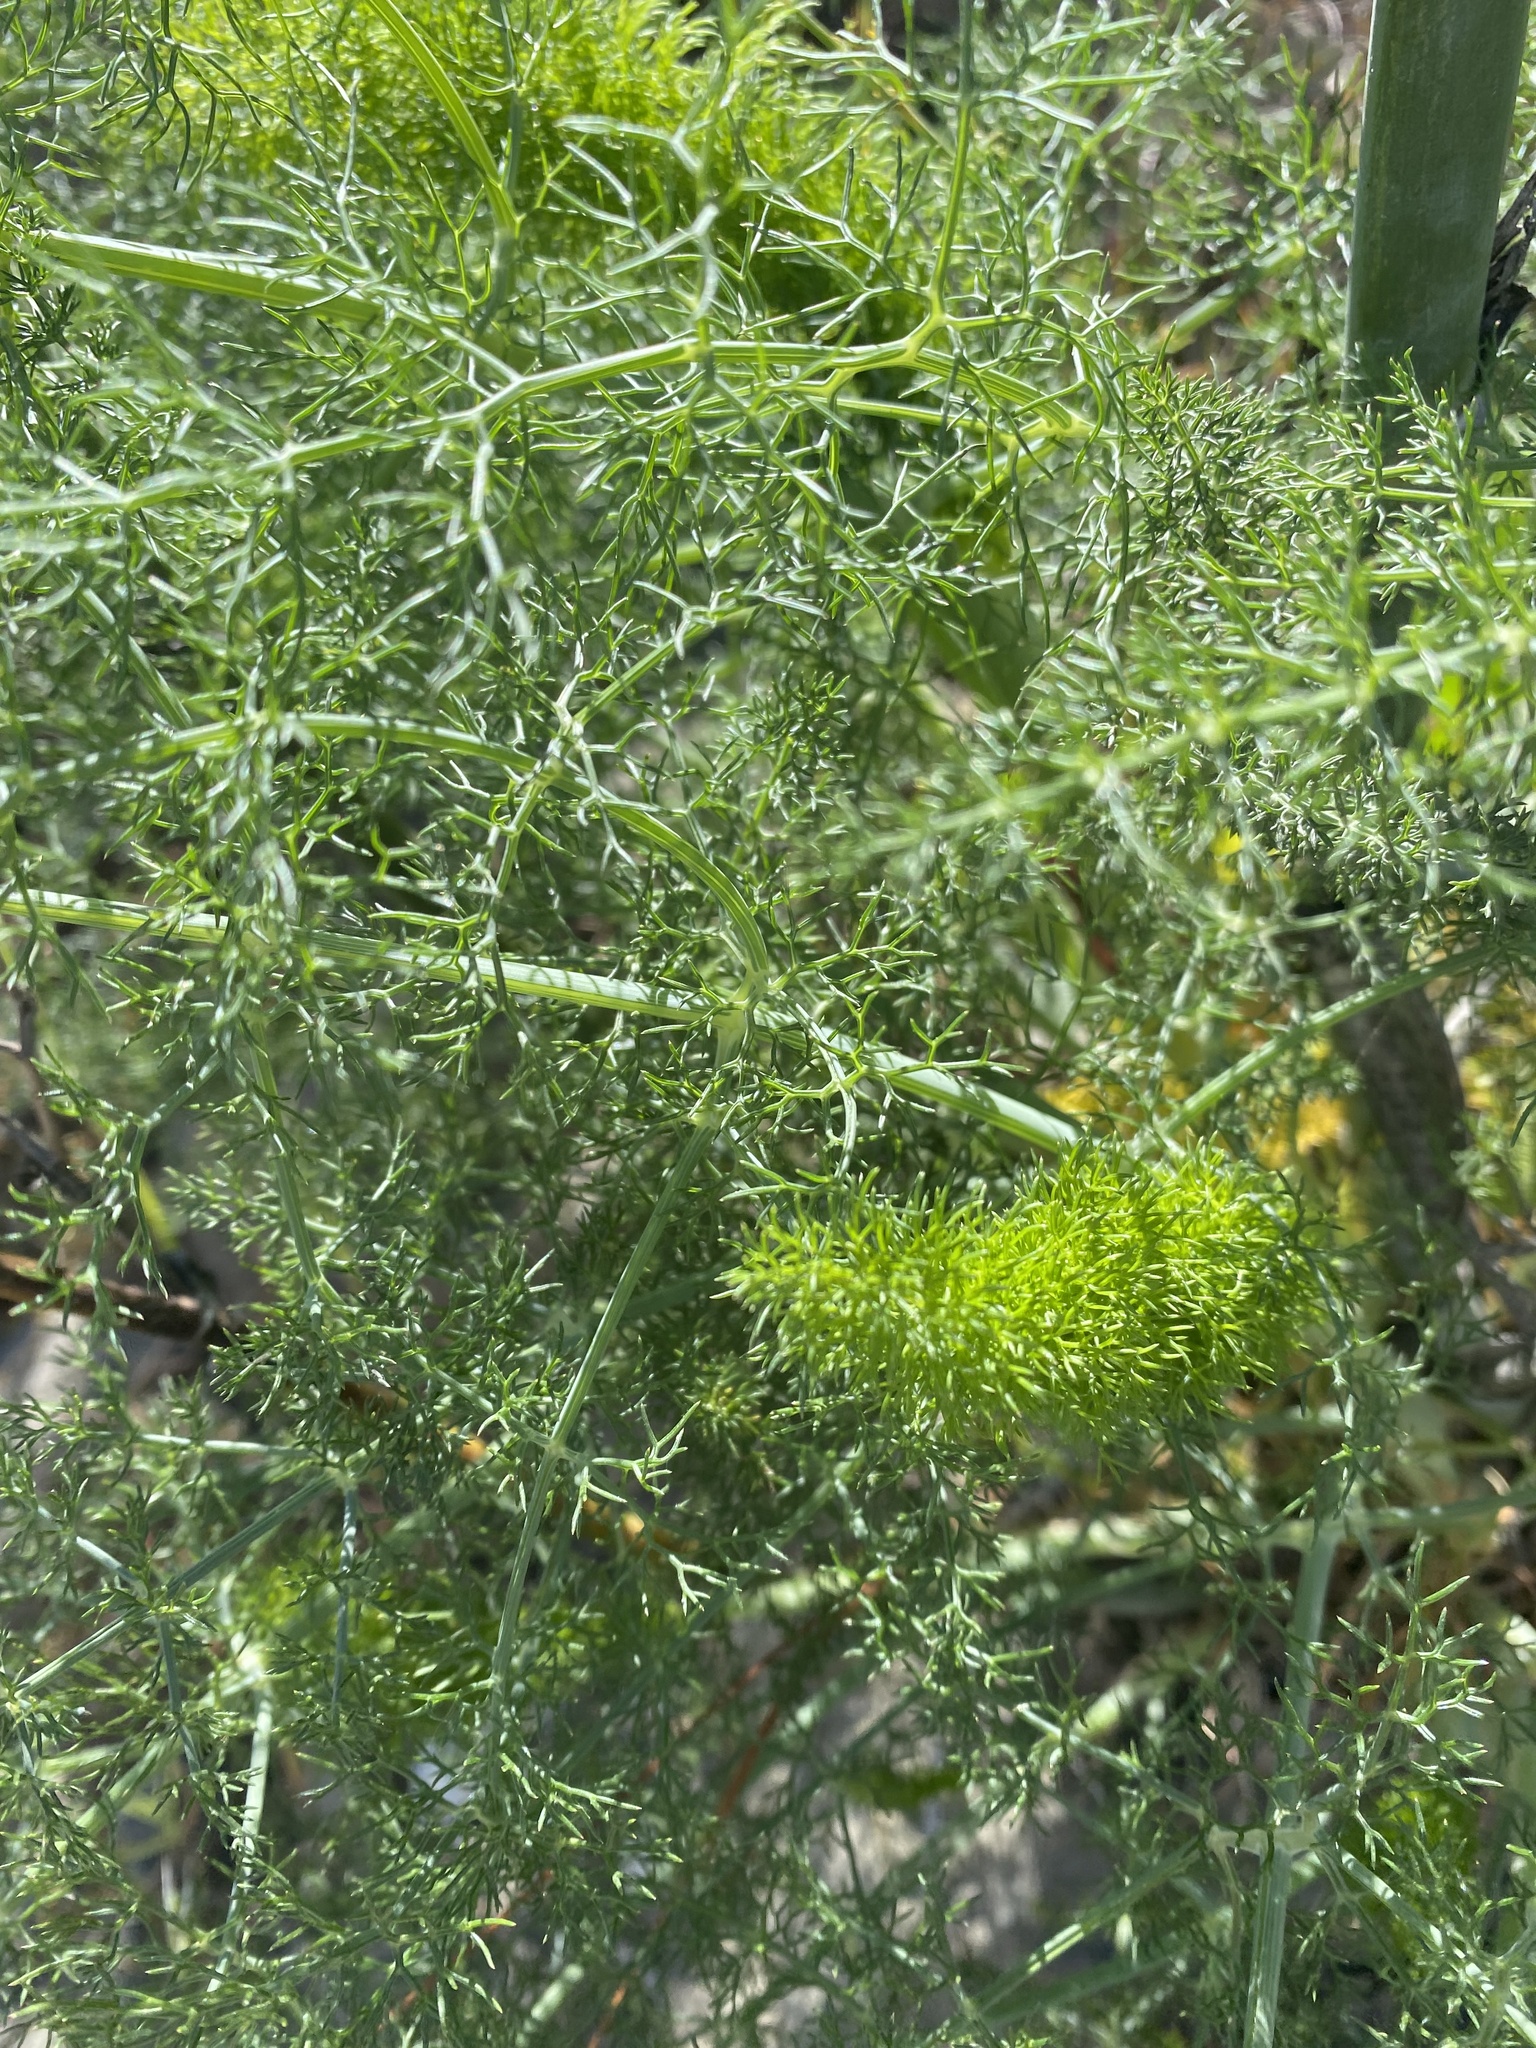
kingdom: Plantae
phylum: Tracheophyta
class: Magnoliopsida
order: Apiales
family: Apiaceae
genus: Foeniculum
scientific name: Foeniculum vulgare
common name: Fennel
